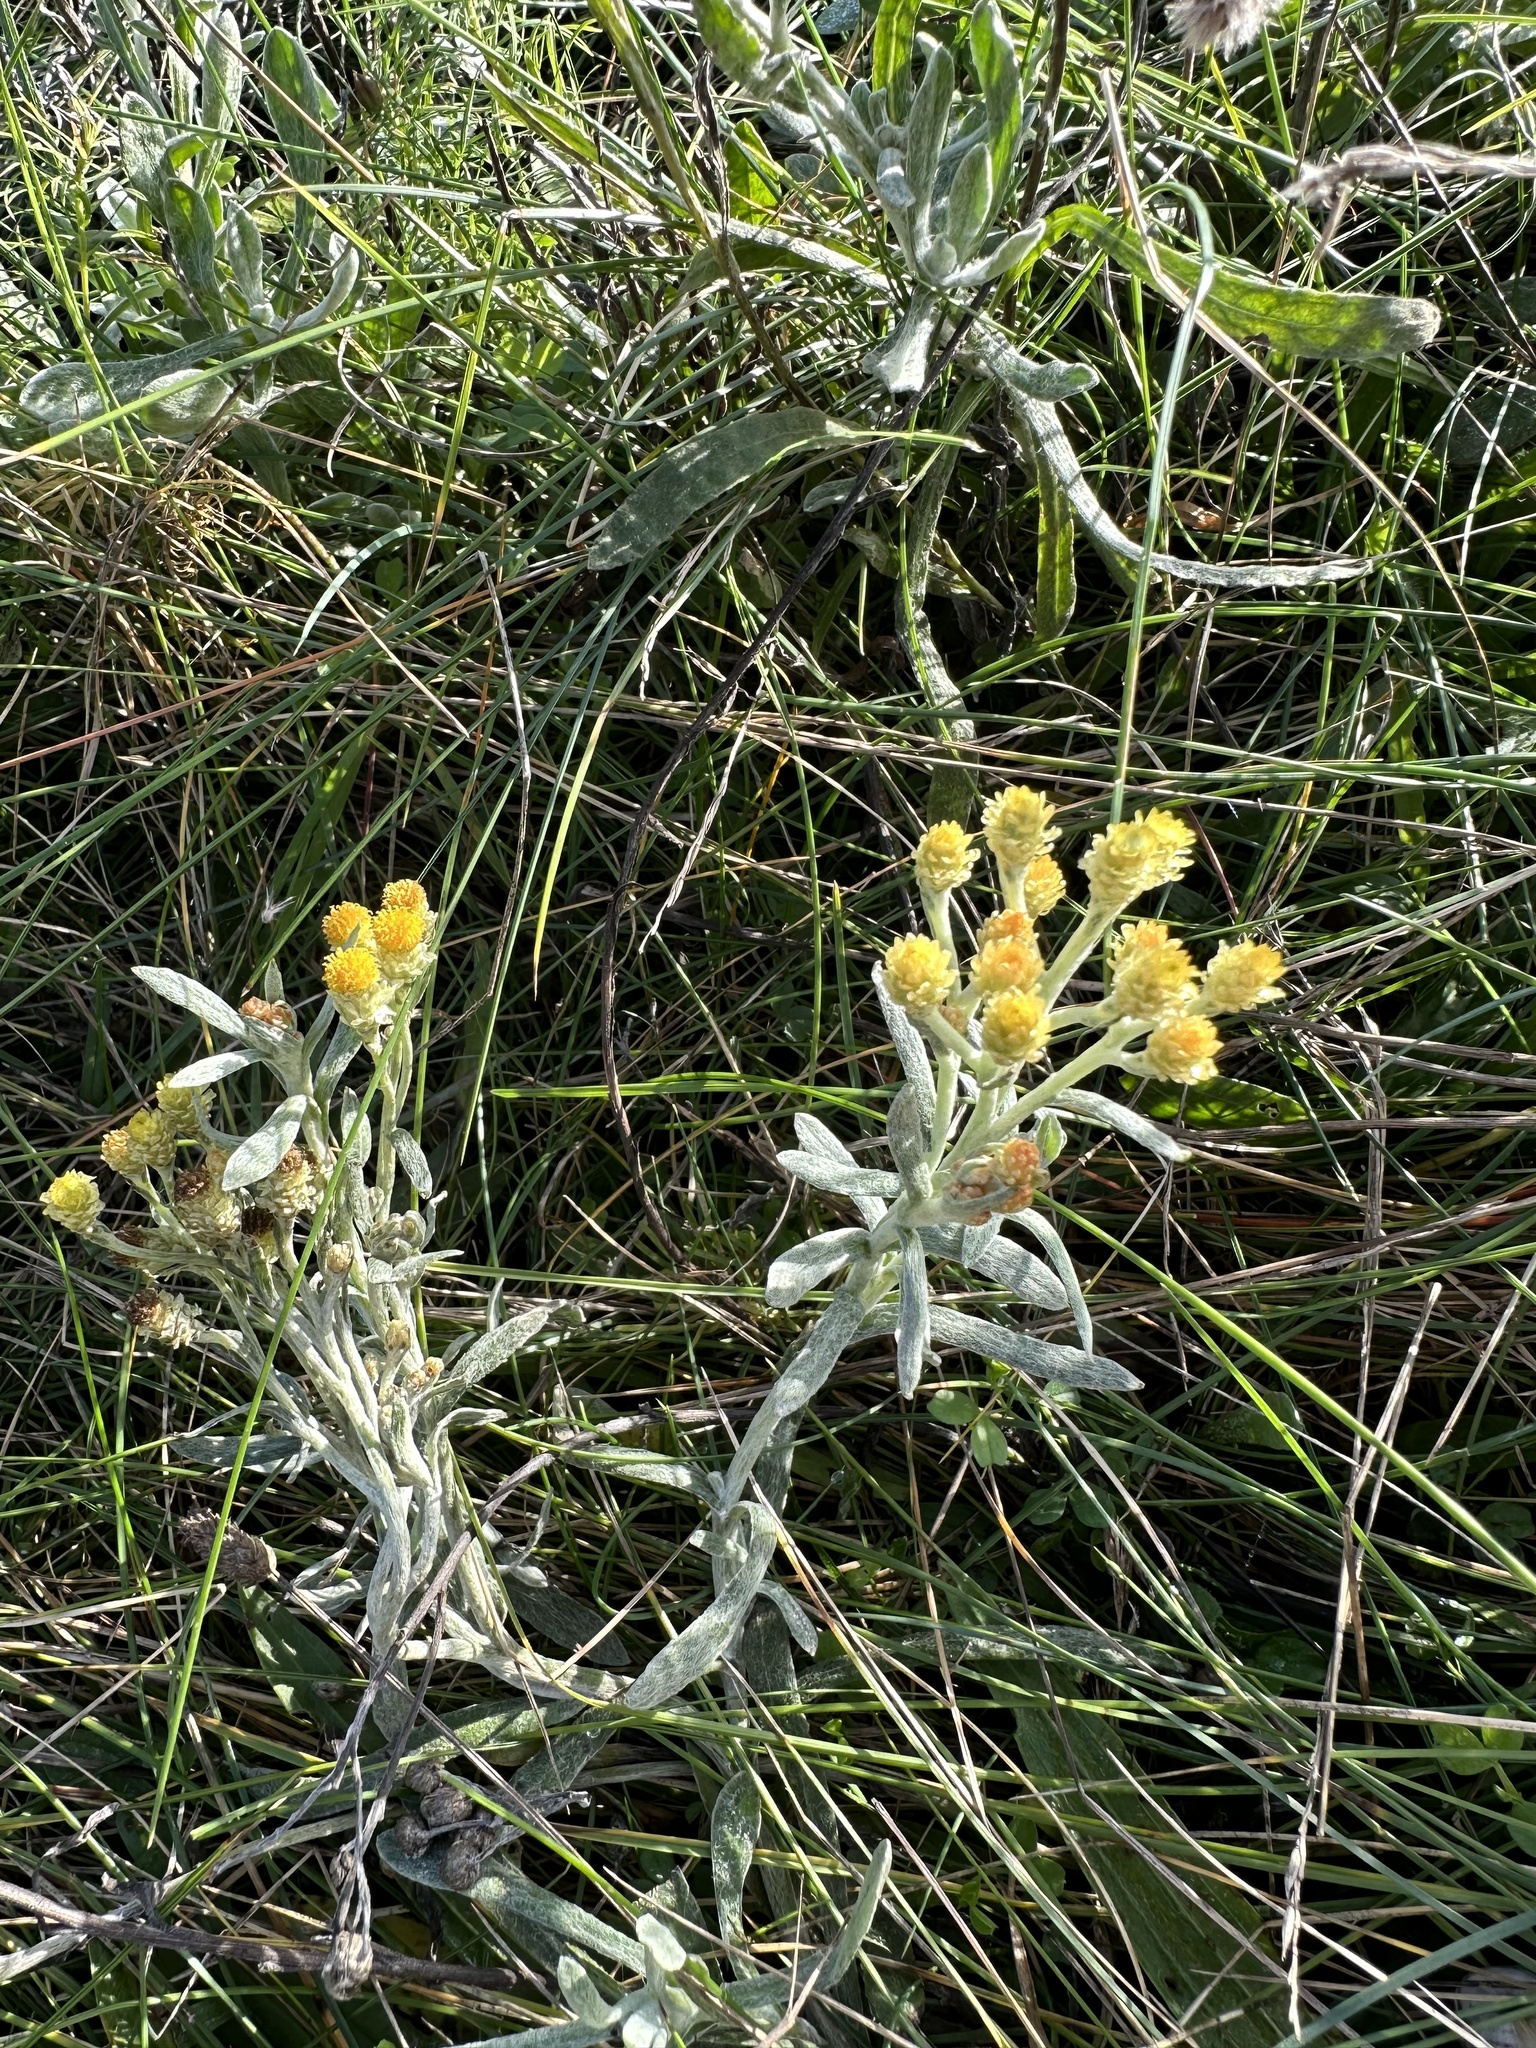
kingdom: Plantae
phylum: Tracheophyta
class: Magnoliopsida
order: Asterales
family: Asteraceae
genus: Helichrysum
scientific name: Helichrysum arenarium
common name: Strawflower
